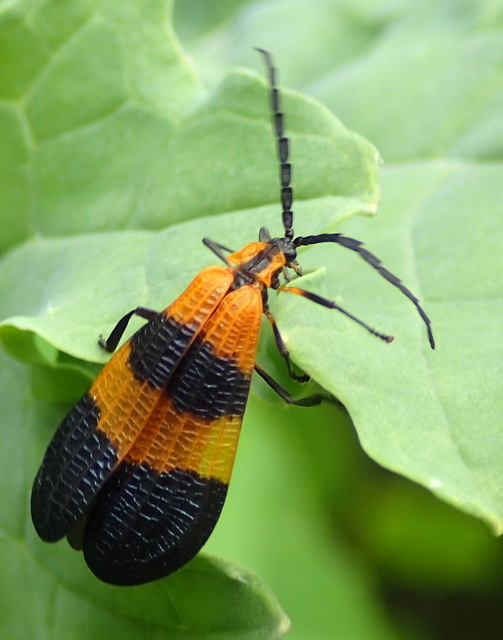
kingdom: Animalia
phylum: Arthropoda
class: Insecta
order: Coleoptera
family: Lycidae
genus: Calopteron
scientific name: Calopteron terminale
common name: End band net-winged beetle
